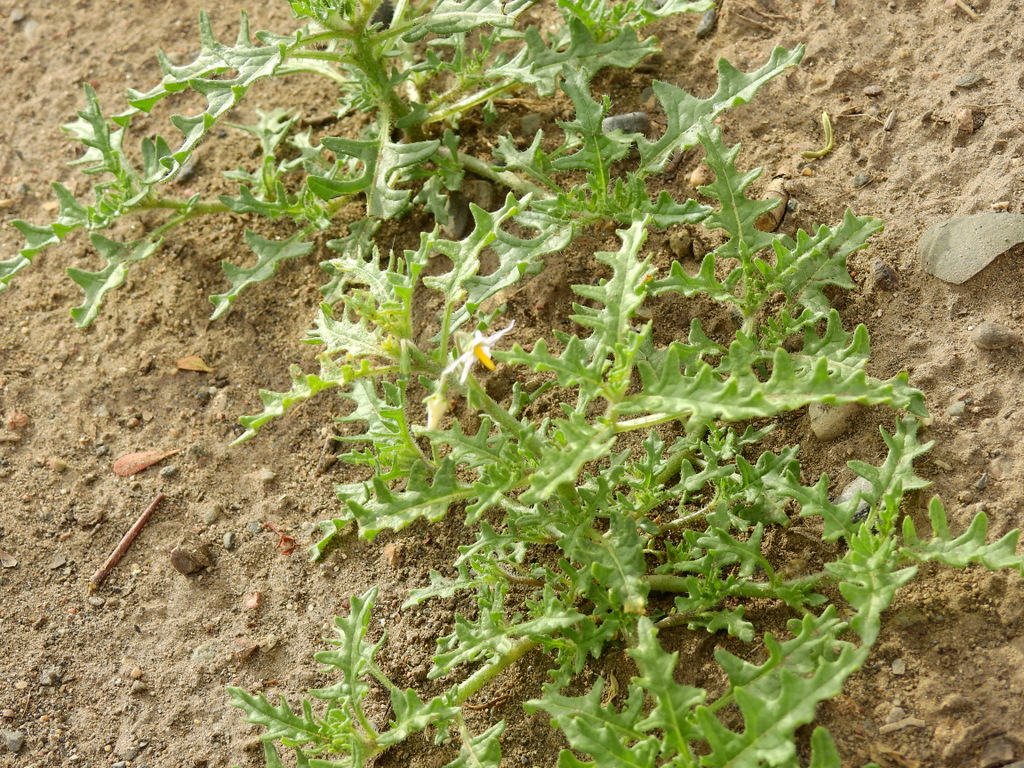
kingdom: Plantae
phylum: Tracheophyta
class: Magnoliopsida
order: Solanales
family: Solanaceae
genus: Solanum
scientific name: Solanum triflorum
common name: Small nightshade
